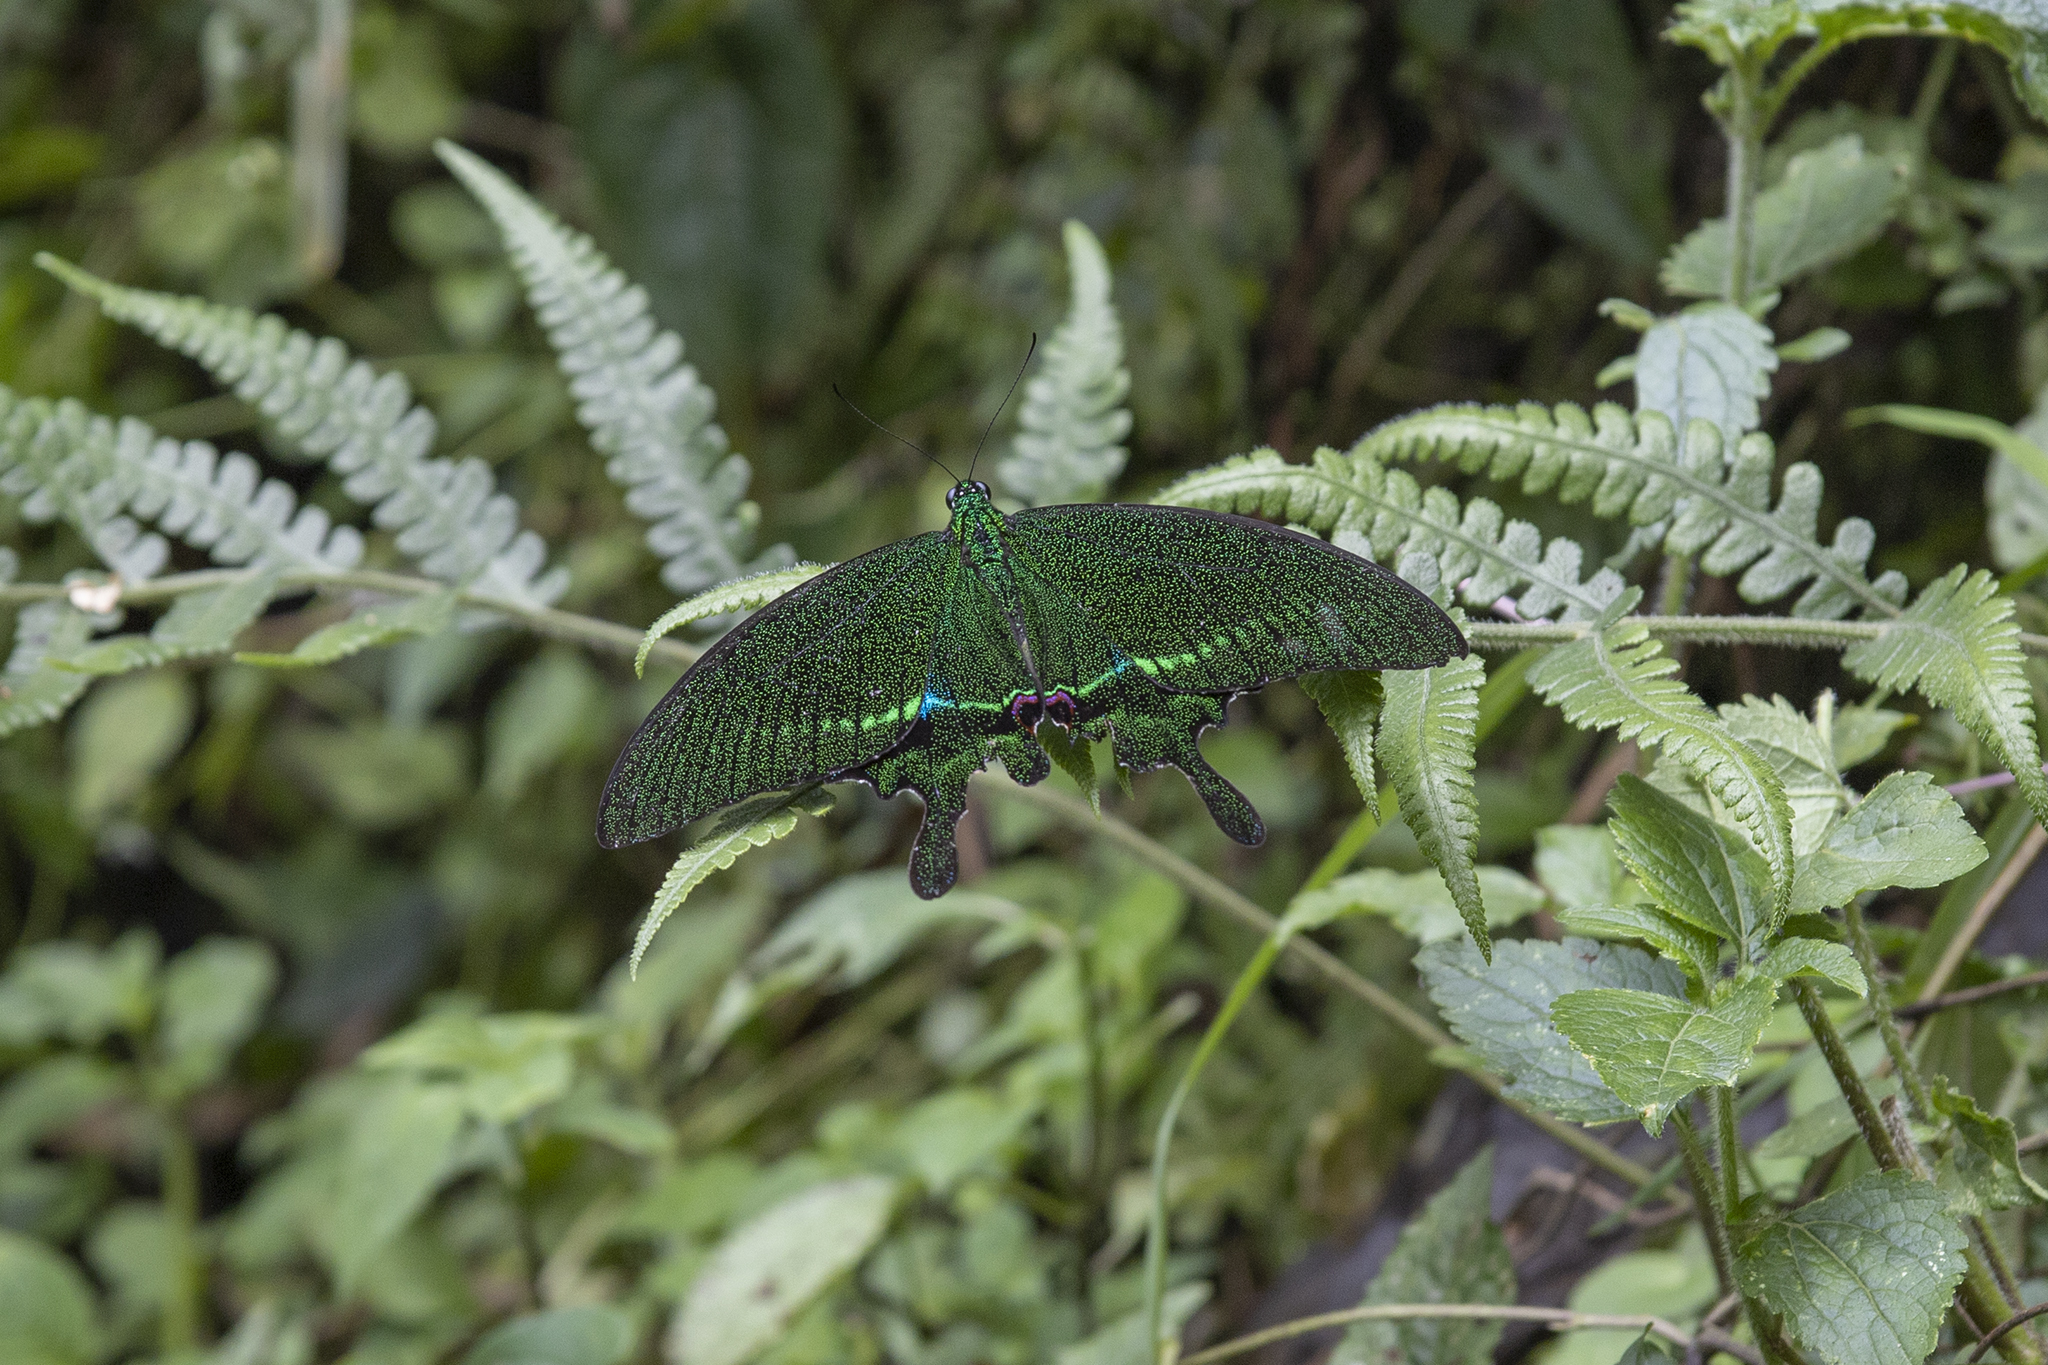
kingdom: Animalia
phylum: Arthropoda
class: Insecta
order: Lepidoptera
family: Papilionidae
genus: Papilio
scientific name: Papilio paris
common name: Paris peacock
